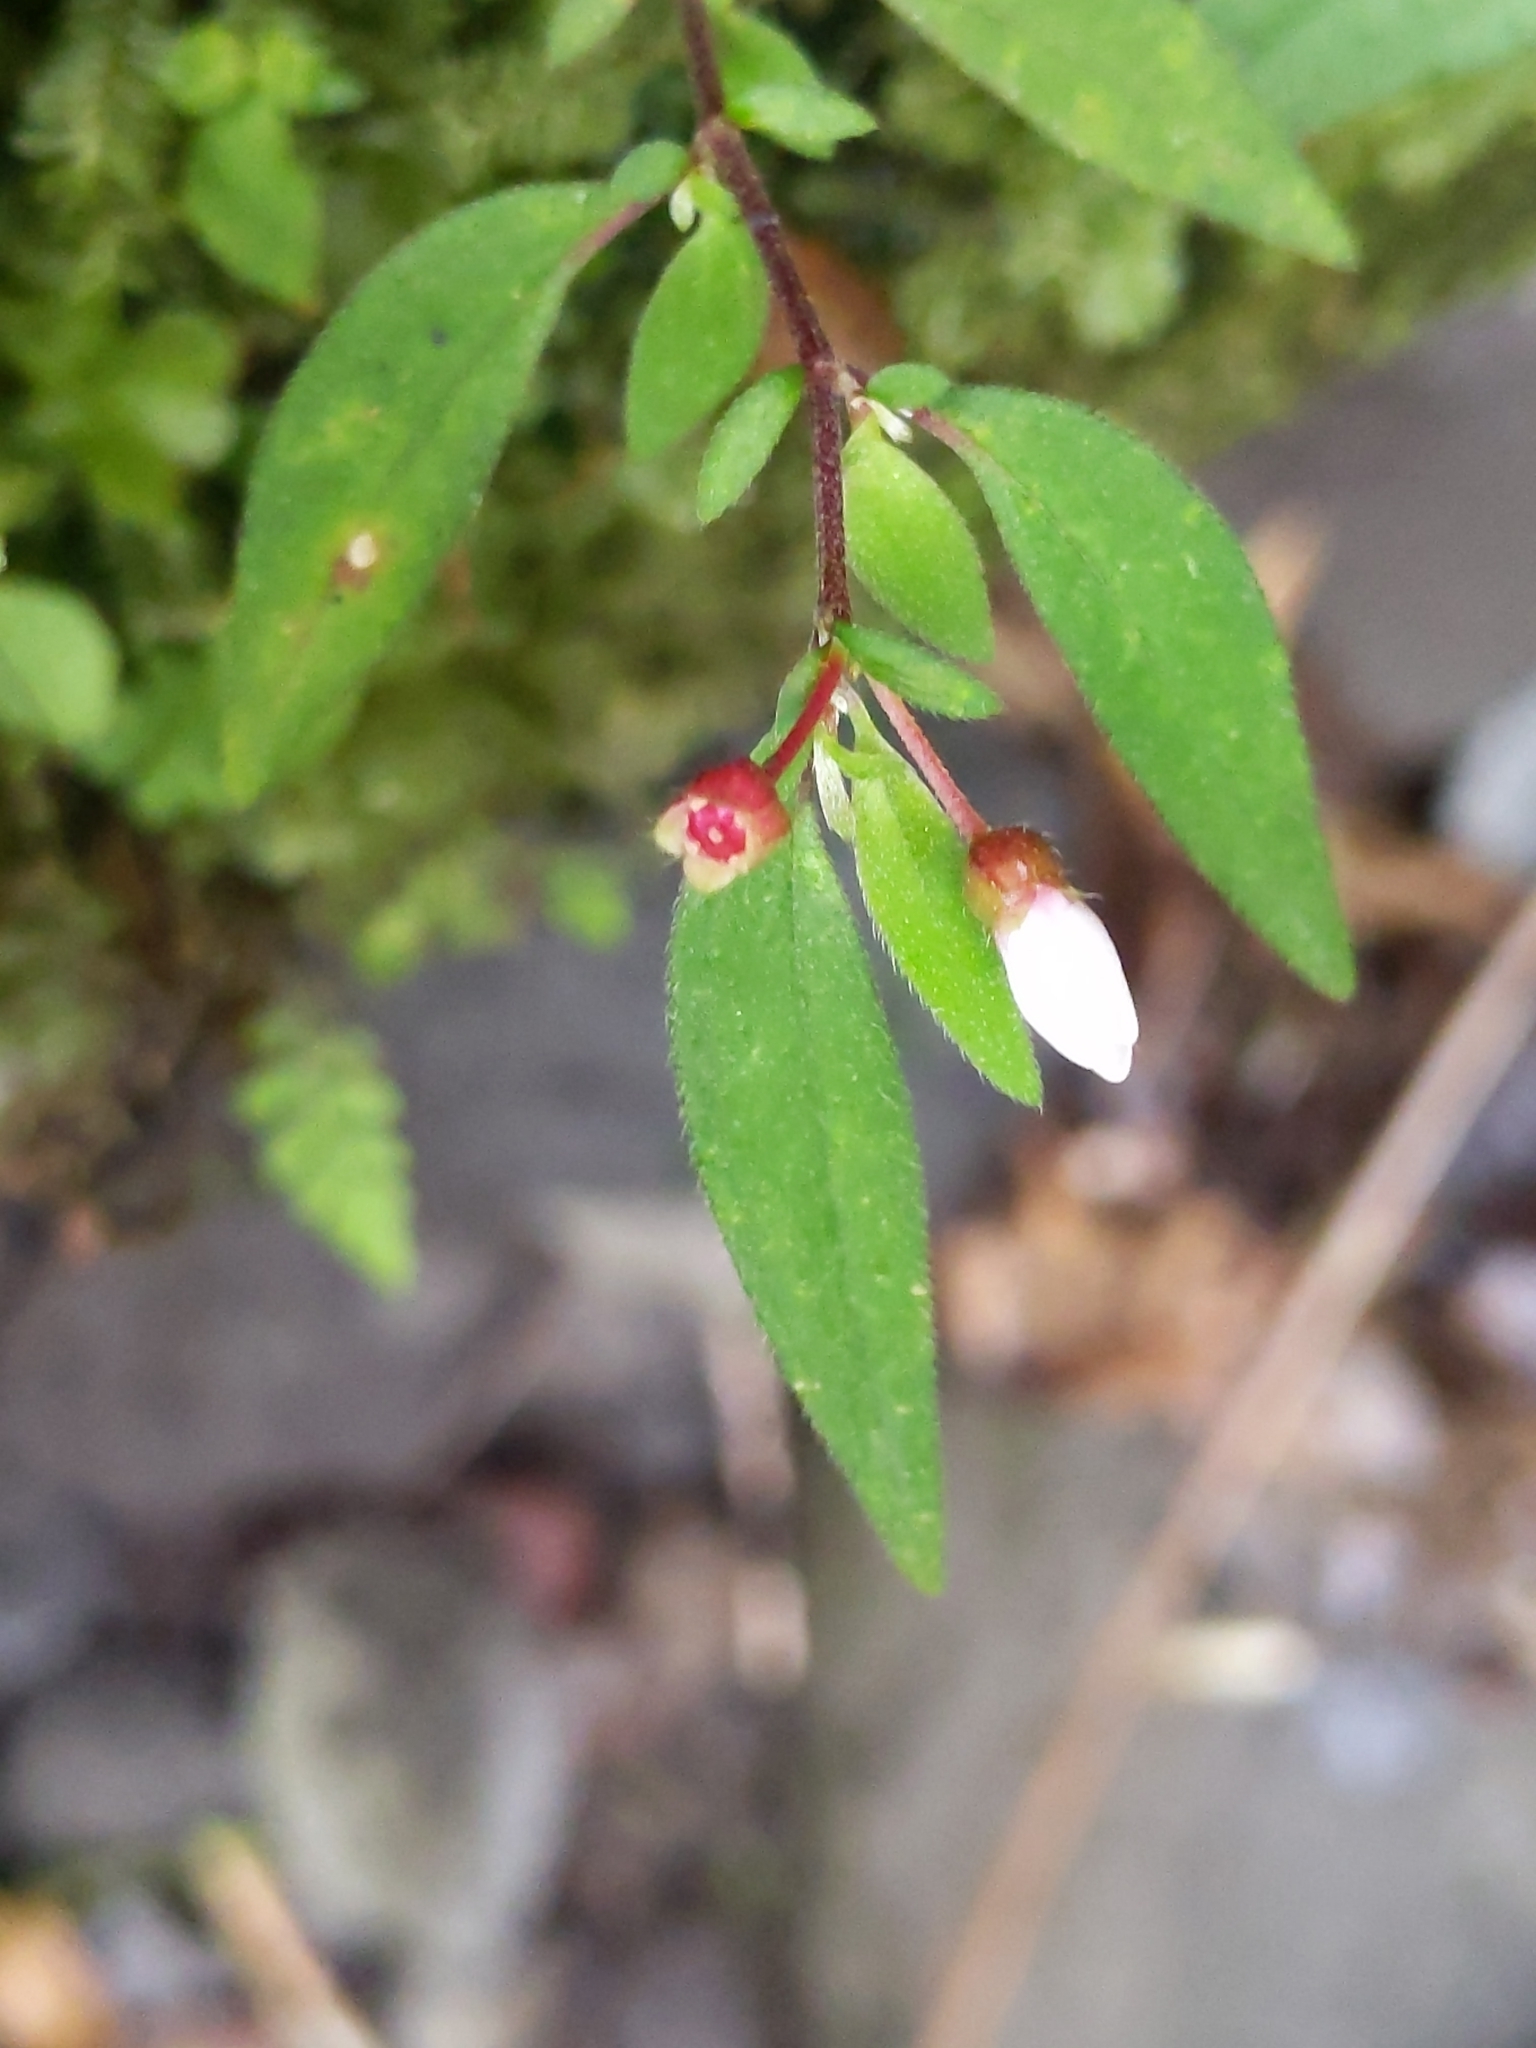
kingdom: Plantae
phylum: Tracheophyta
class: Magnoliopsida
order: Myrtales
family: Melastomataceae
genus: Centradenia
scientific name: Centradenia inaequilateralis
